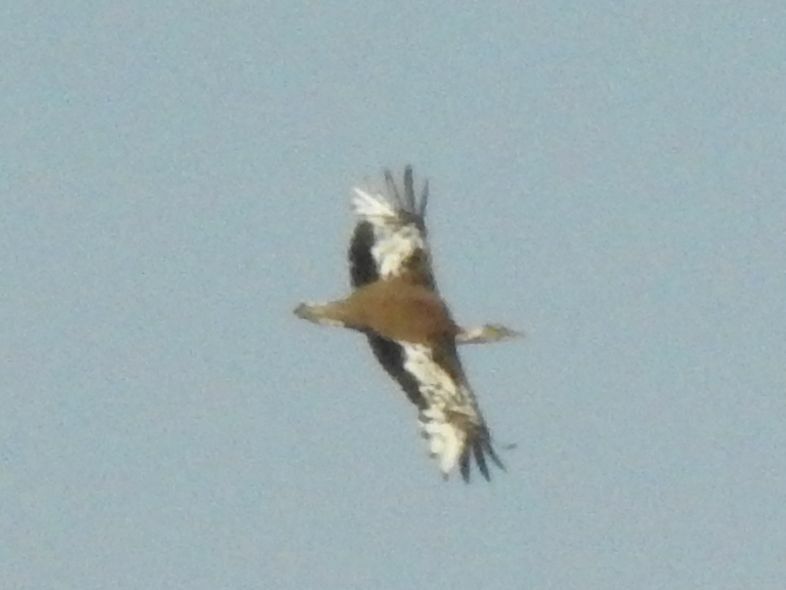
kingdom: Animalia
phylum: Chordata
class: Aves
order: Otidiformes
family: Otididae
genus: Neotis
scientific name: Neotis denhami
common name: Denham's bustard
